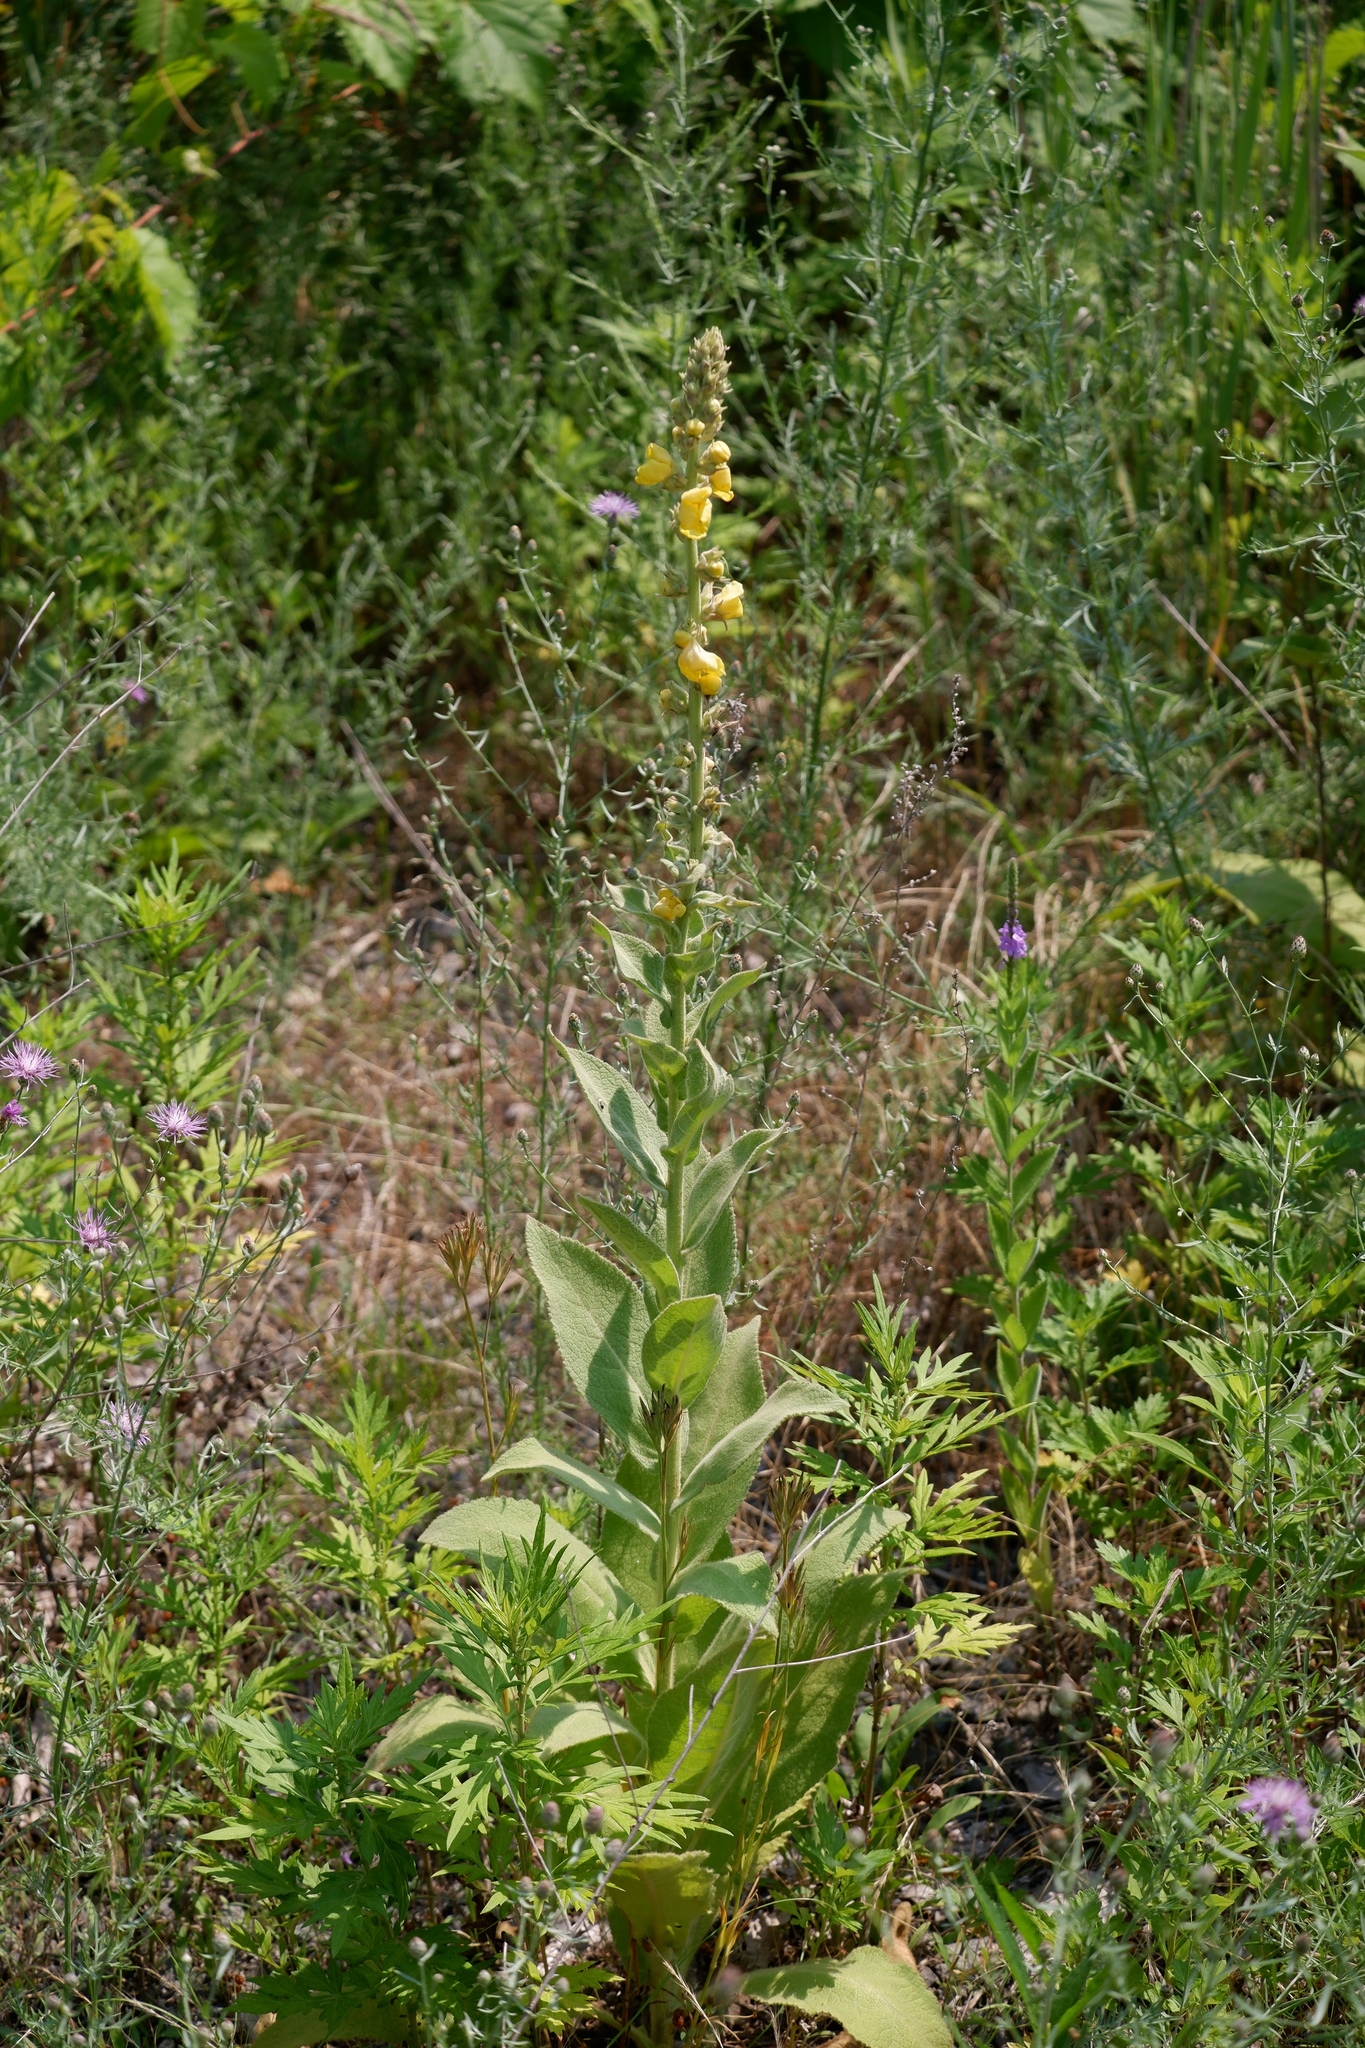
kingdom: Plantae
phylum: Tracheophyta
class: Magnoliopsida
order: Lamiales
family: Scrophulariaceae
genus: Verbascum
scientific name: Verbascum phlomoides
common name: Orange mullein
